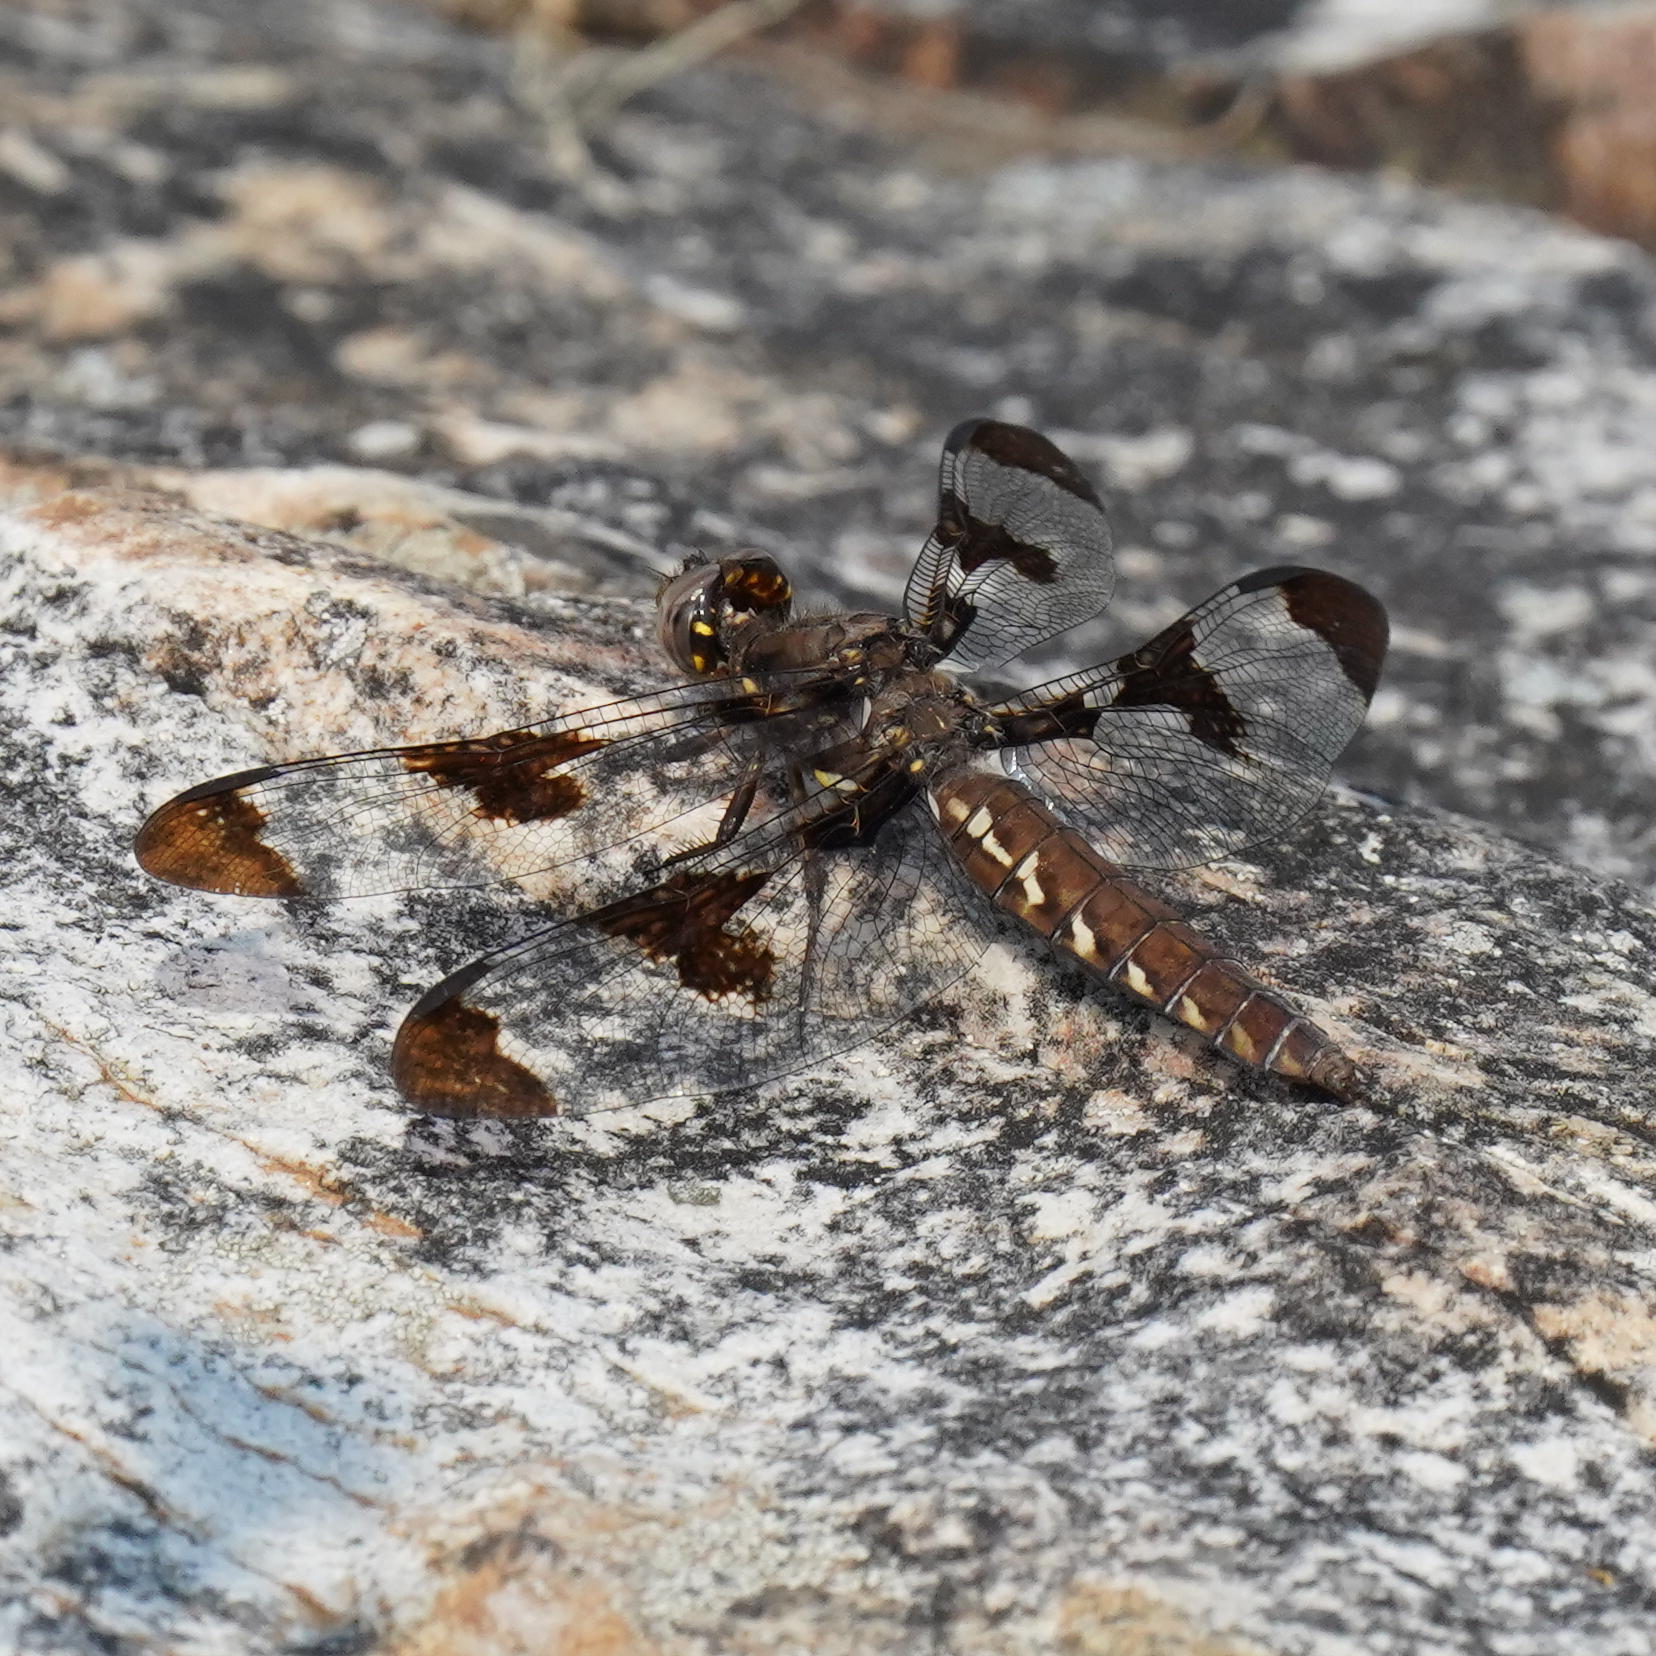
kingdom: Animalia
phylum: Arthropoda
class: Insecta
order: Odonata
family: Libellulidae
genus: Plathemis
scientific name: Plathemis lydia
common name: Common whitetail
